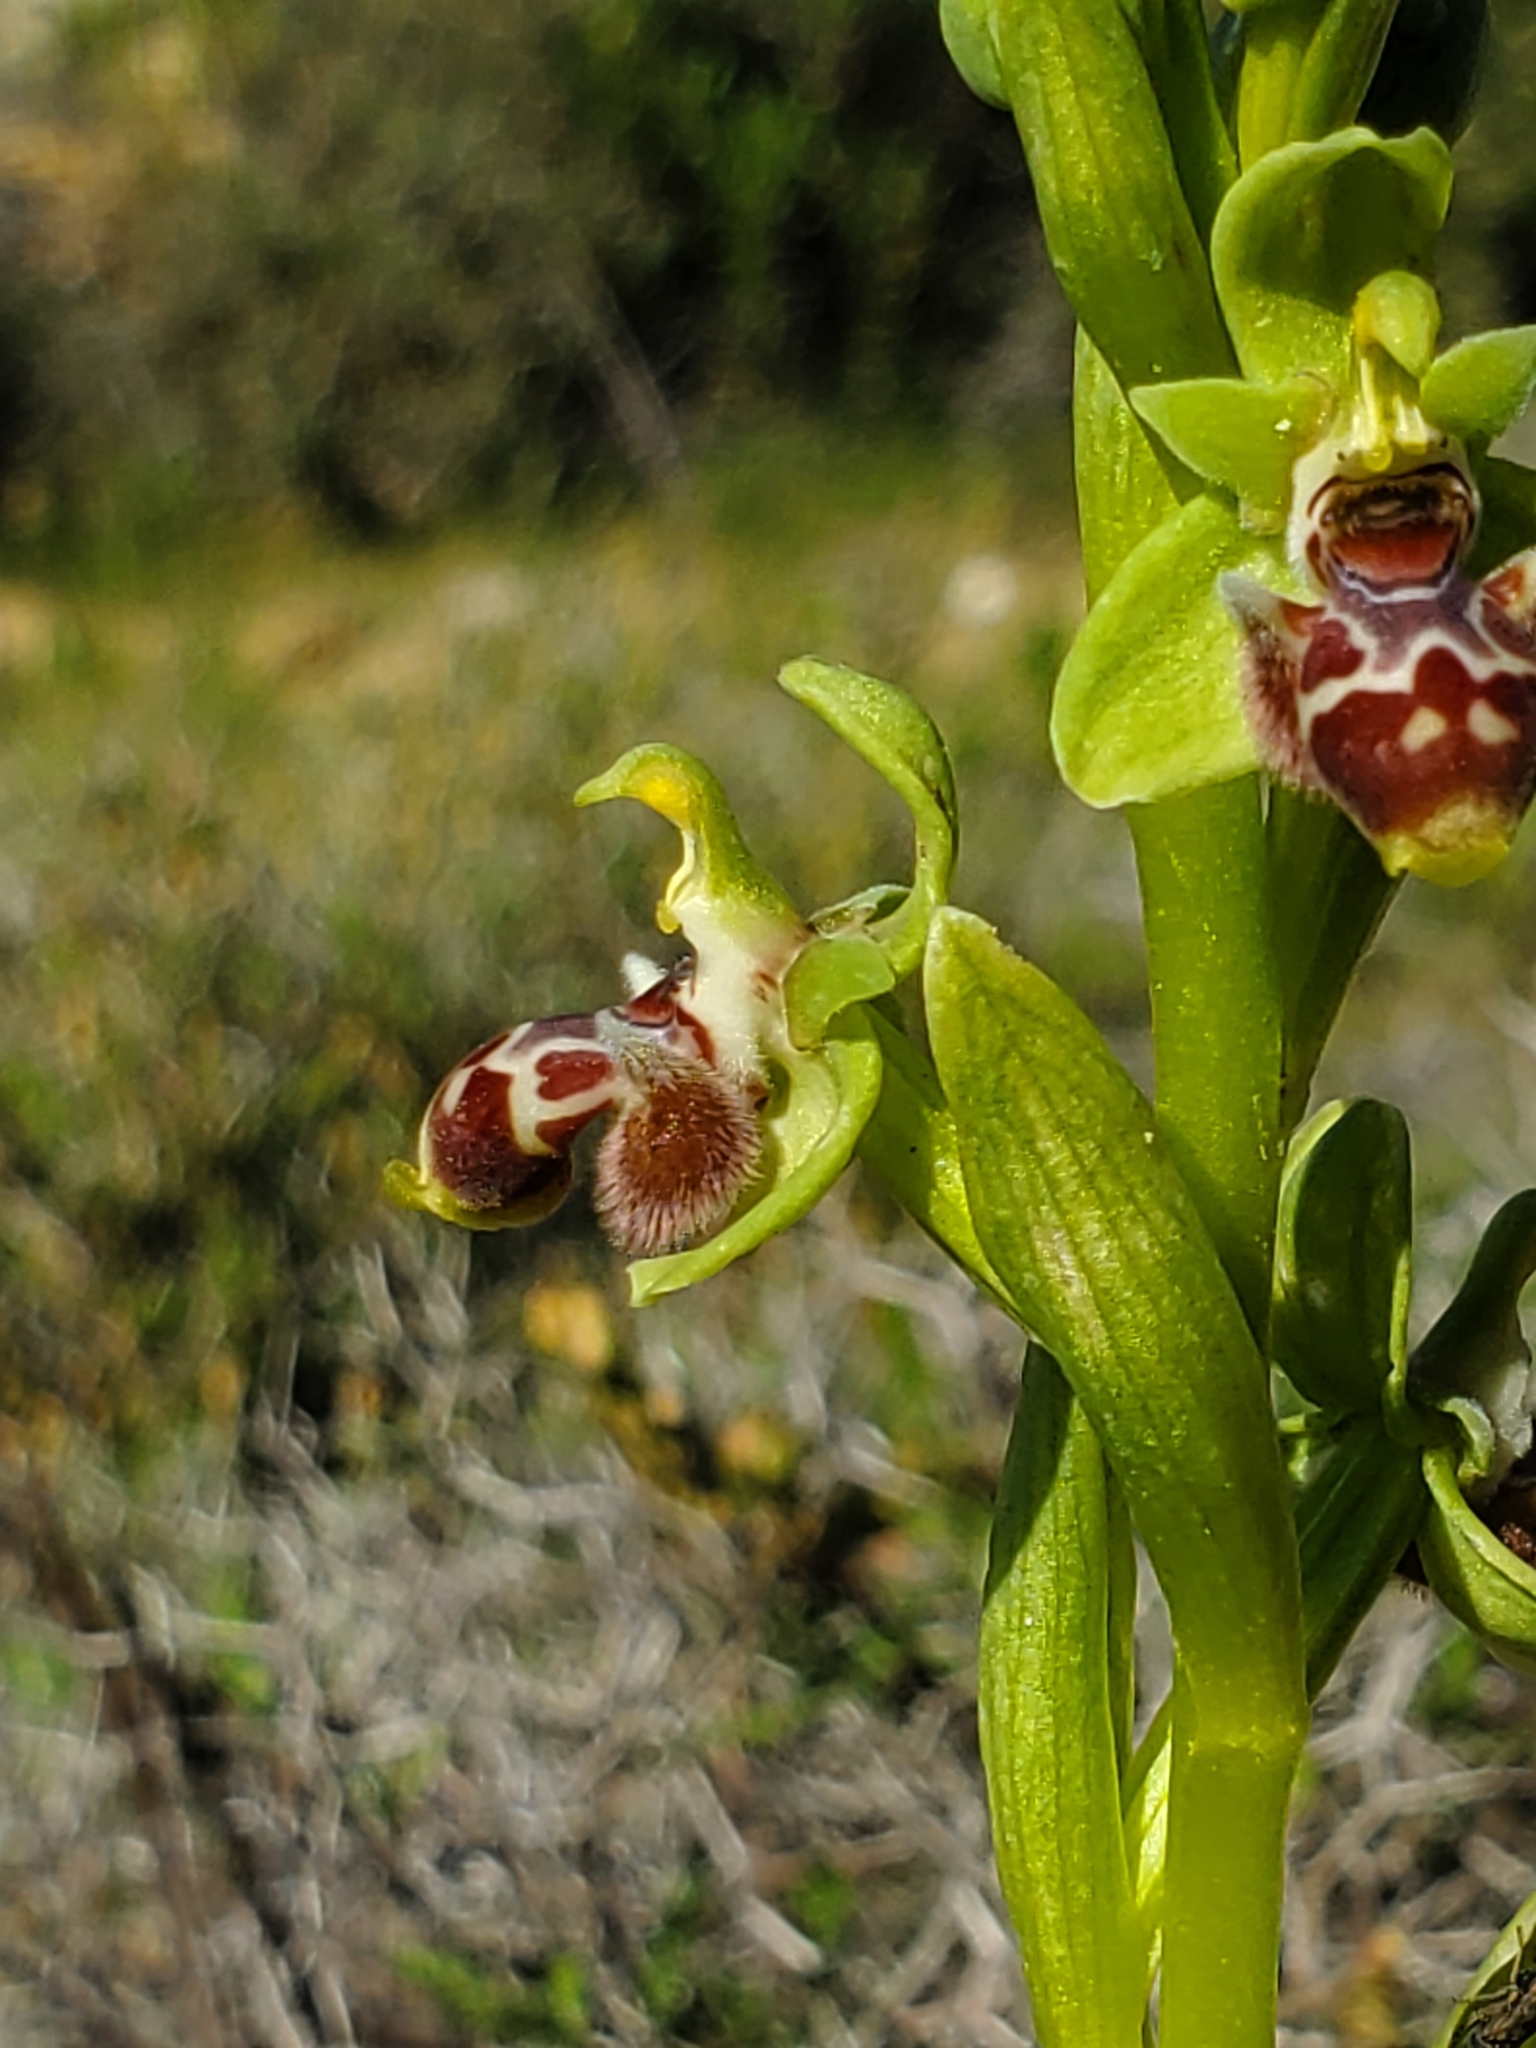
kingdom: Plantae
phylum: Tracheophyta
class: Liliopsida
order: Asparagales
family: Orchidaceae
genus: Ophrys
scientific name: Ophrys umbilicata
